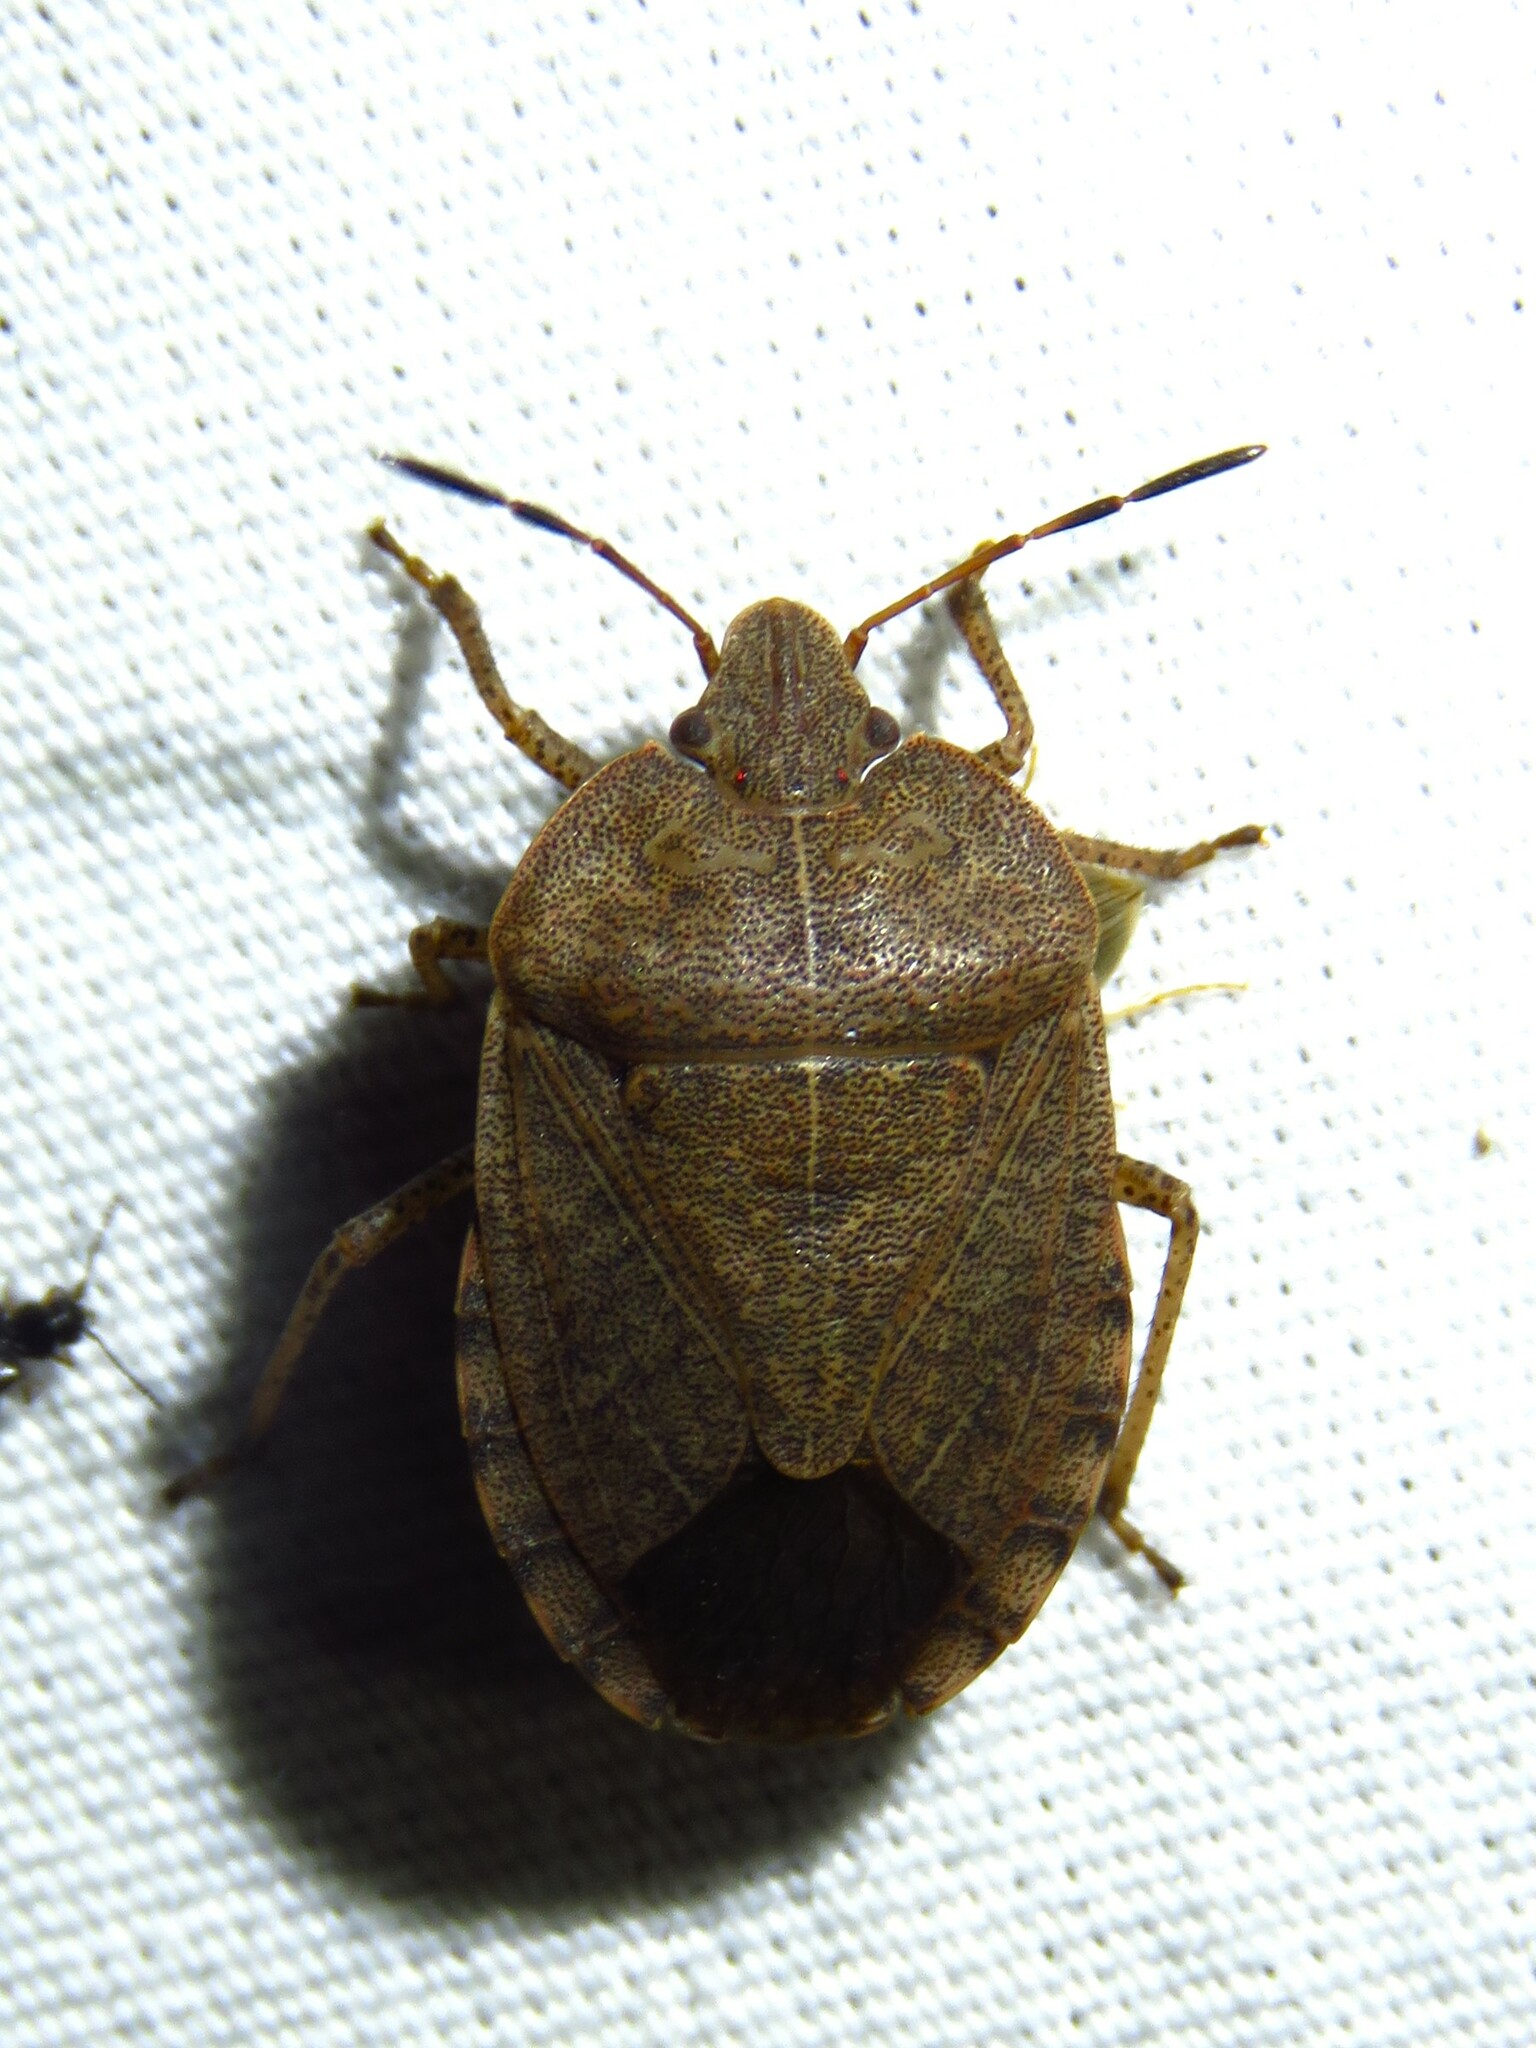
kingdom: Animalia
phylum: Arthropoda
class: Insecta
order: Hemiptera
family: Pentatomidae
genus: Menecles
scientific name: Menecles insertus
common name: Elf shoe stink bug
